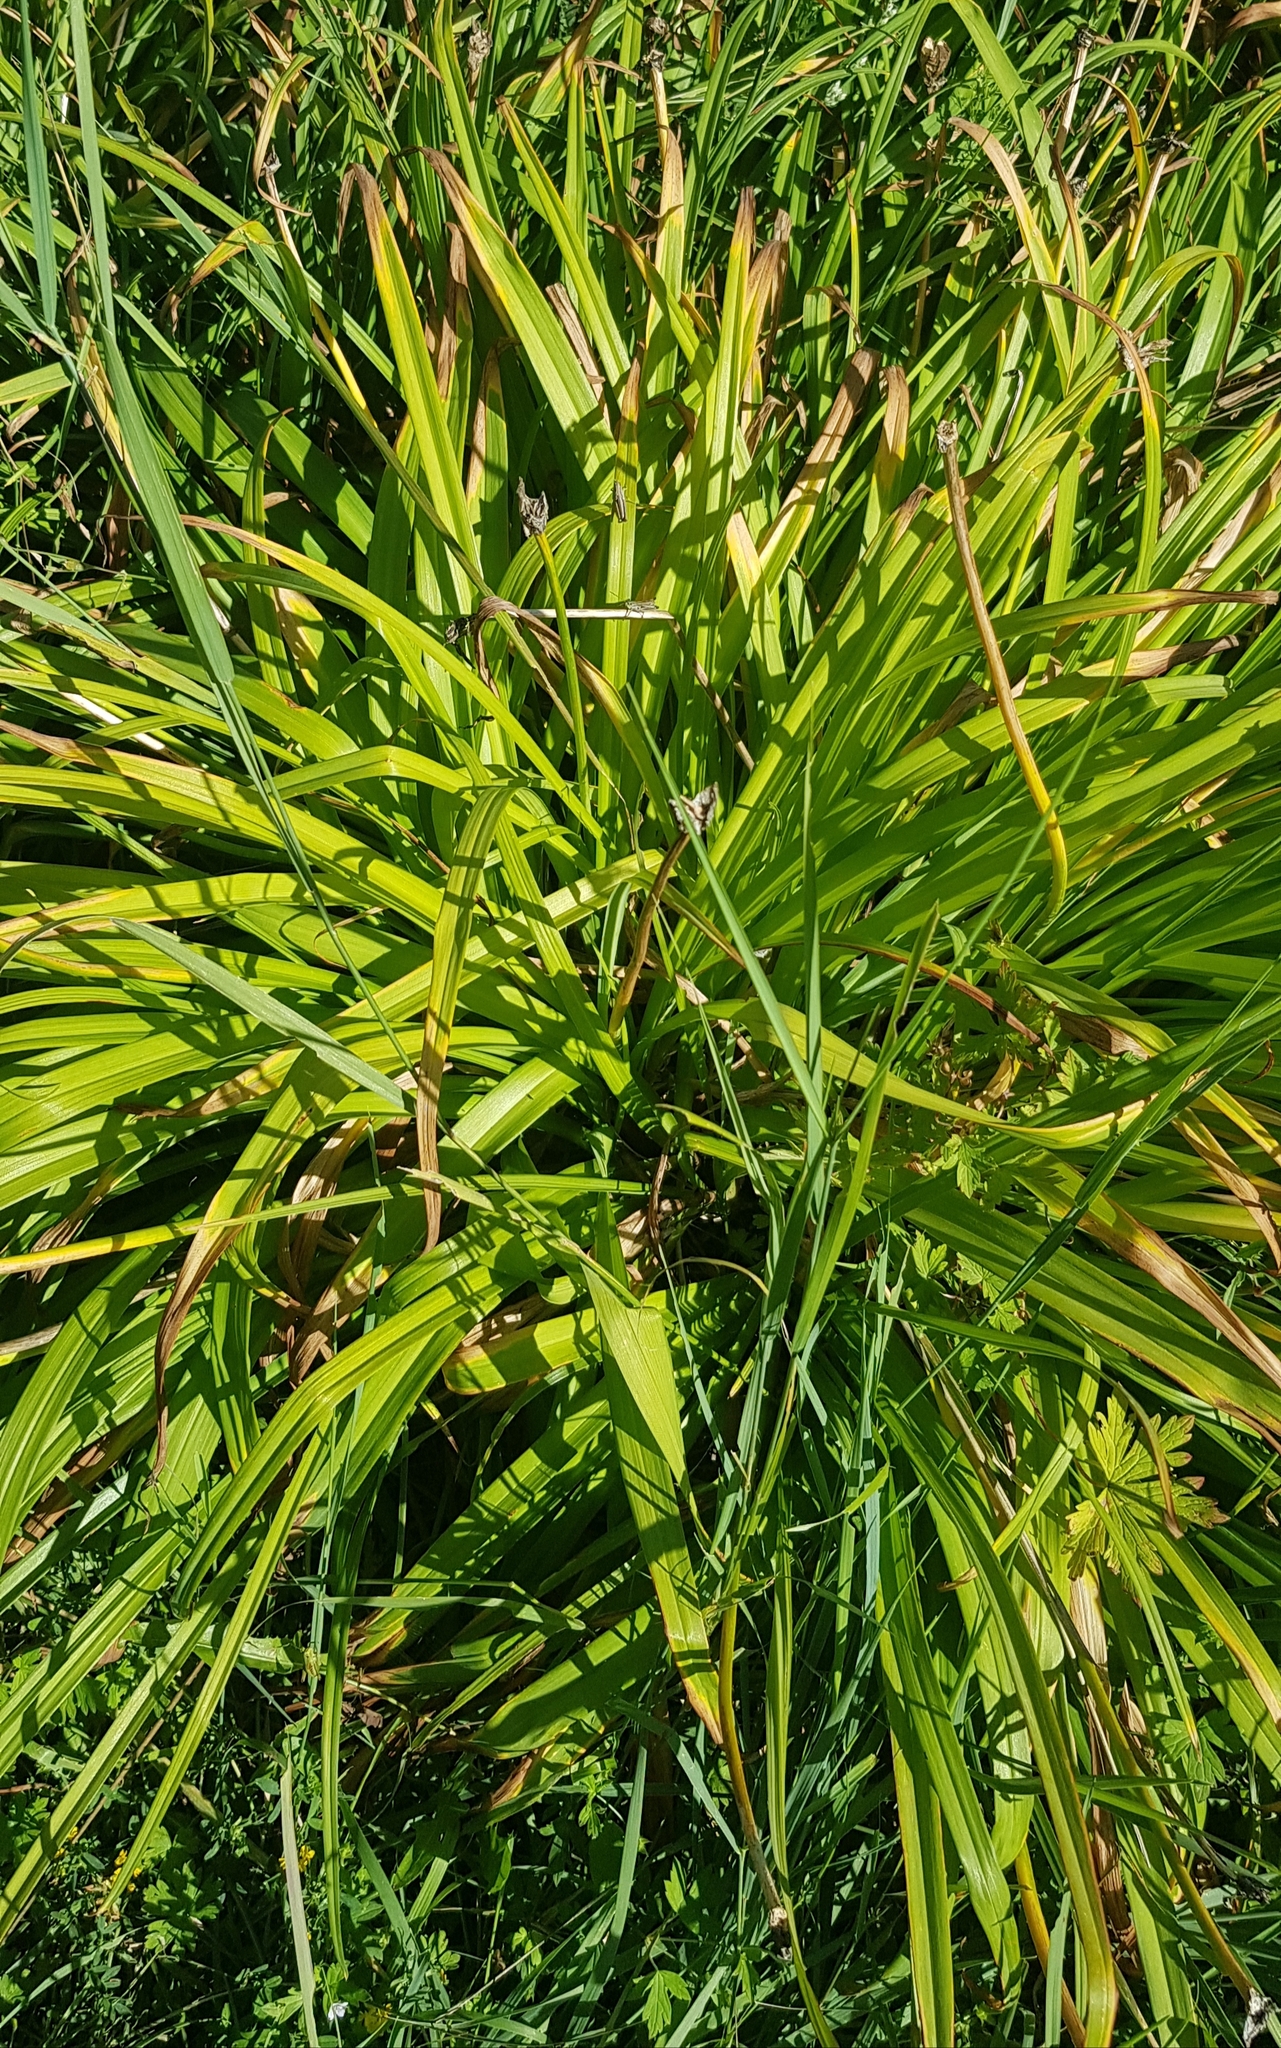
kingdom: Plantae
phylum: Tracheophyta
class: Liliopsida
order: Acorales
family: Acoraceae
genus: Acorus
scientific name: Acorus calamus
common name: Sweet-flag
